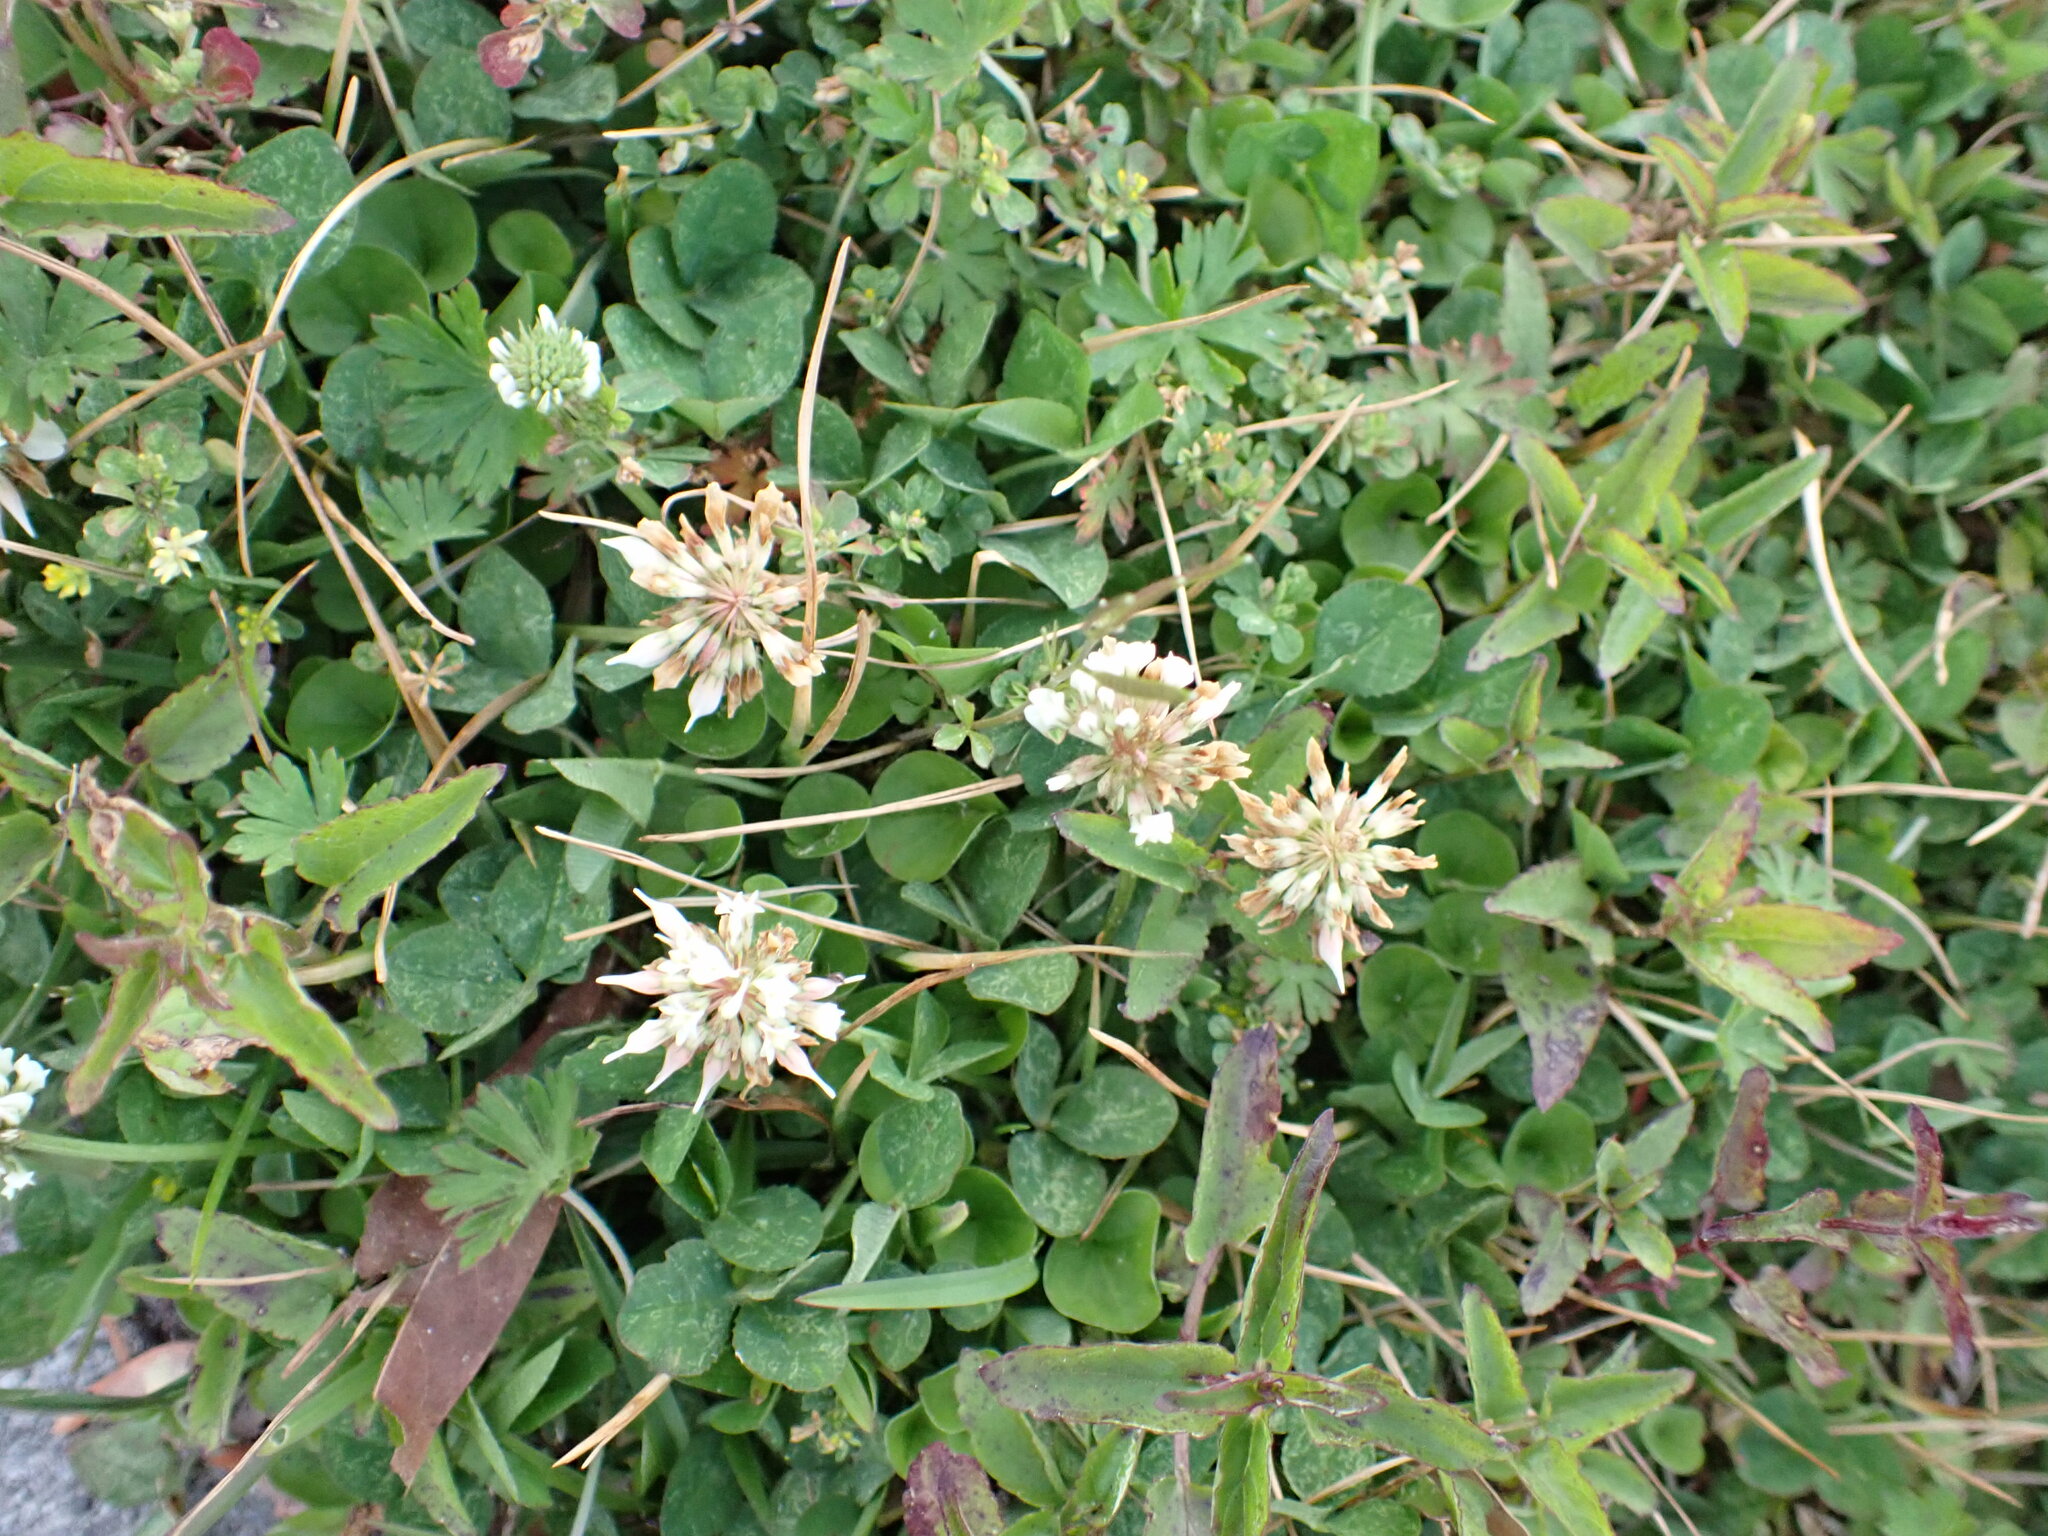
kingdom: Plantae
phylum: Tracheophyta
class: Magnoliopsida
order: Fabales
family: Fabaceae
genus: Trifolium
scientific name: Trifolium repens
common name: White clover
